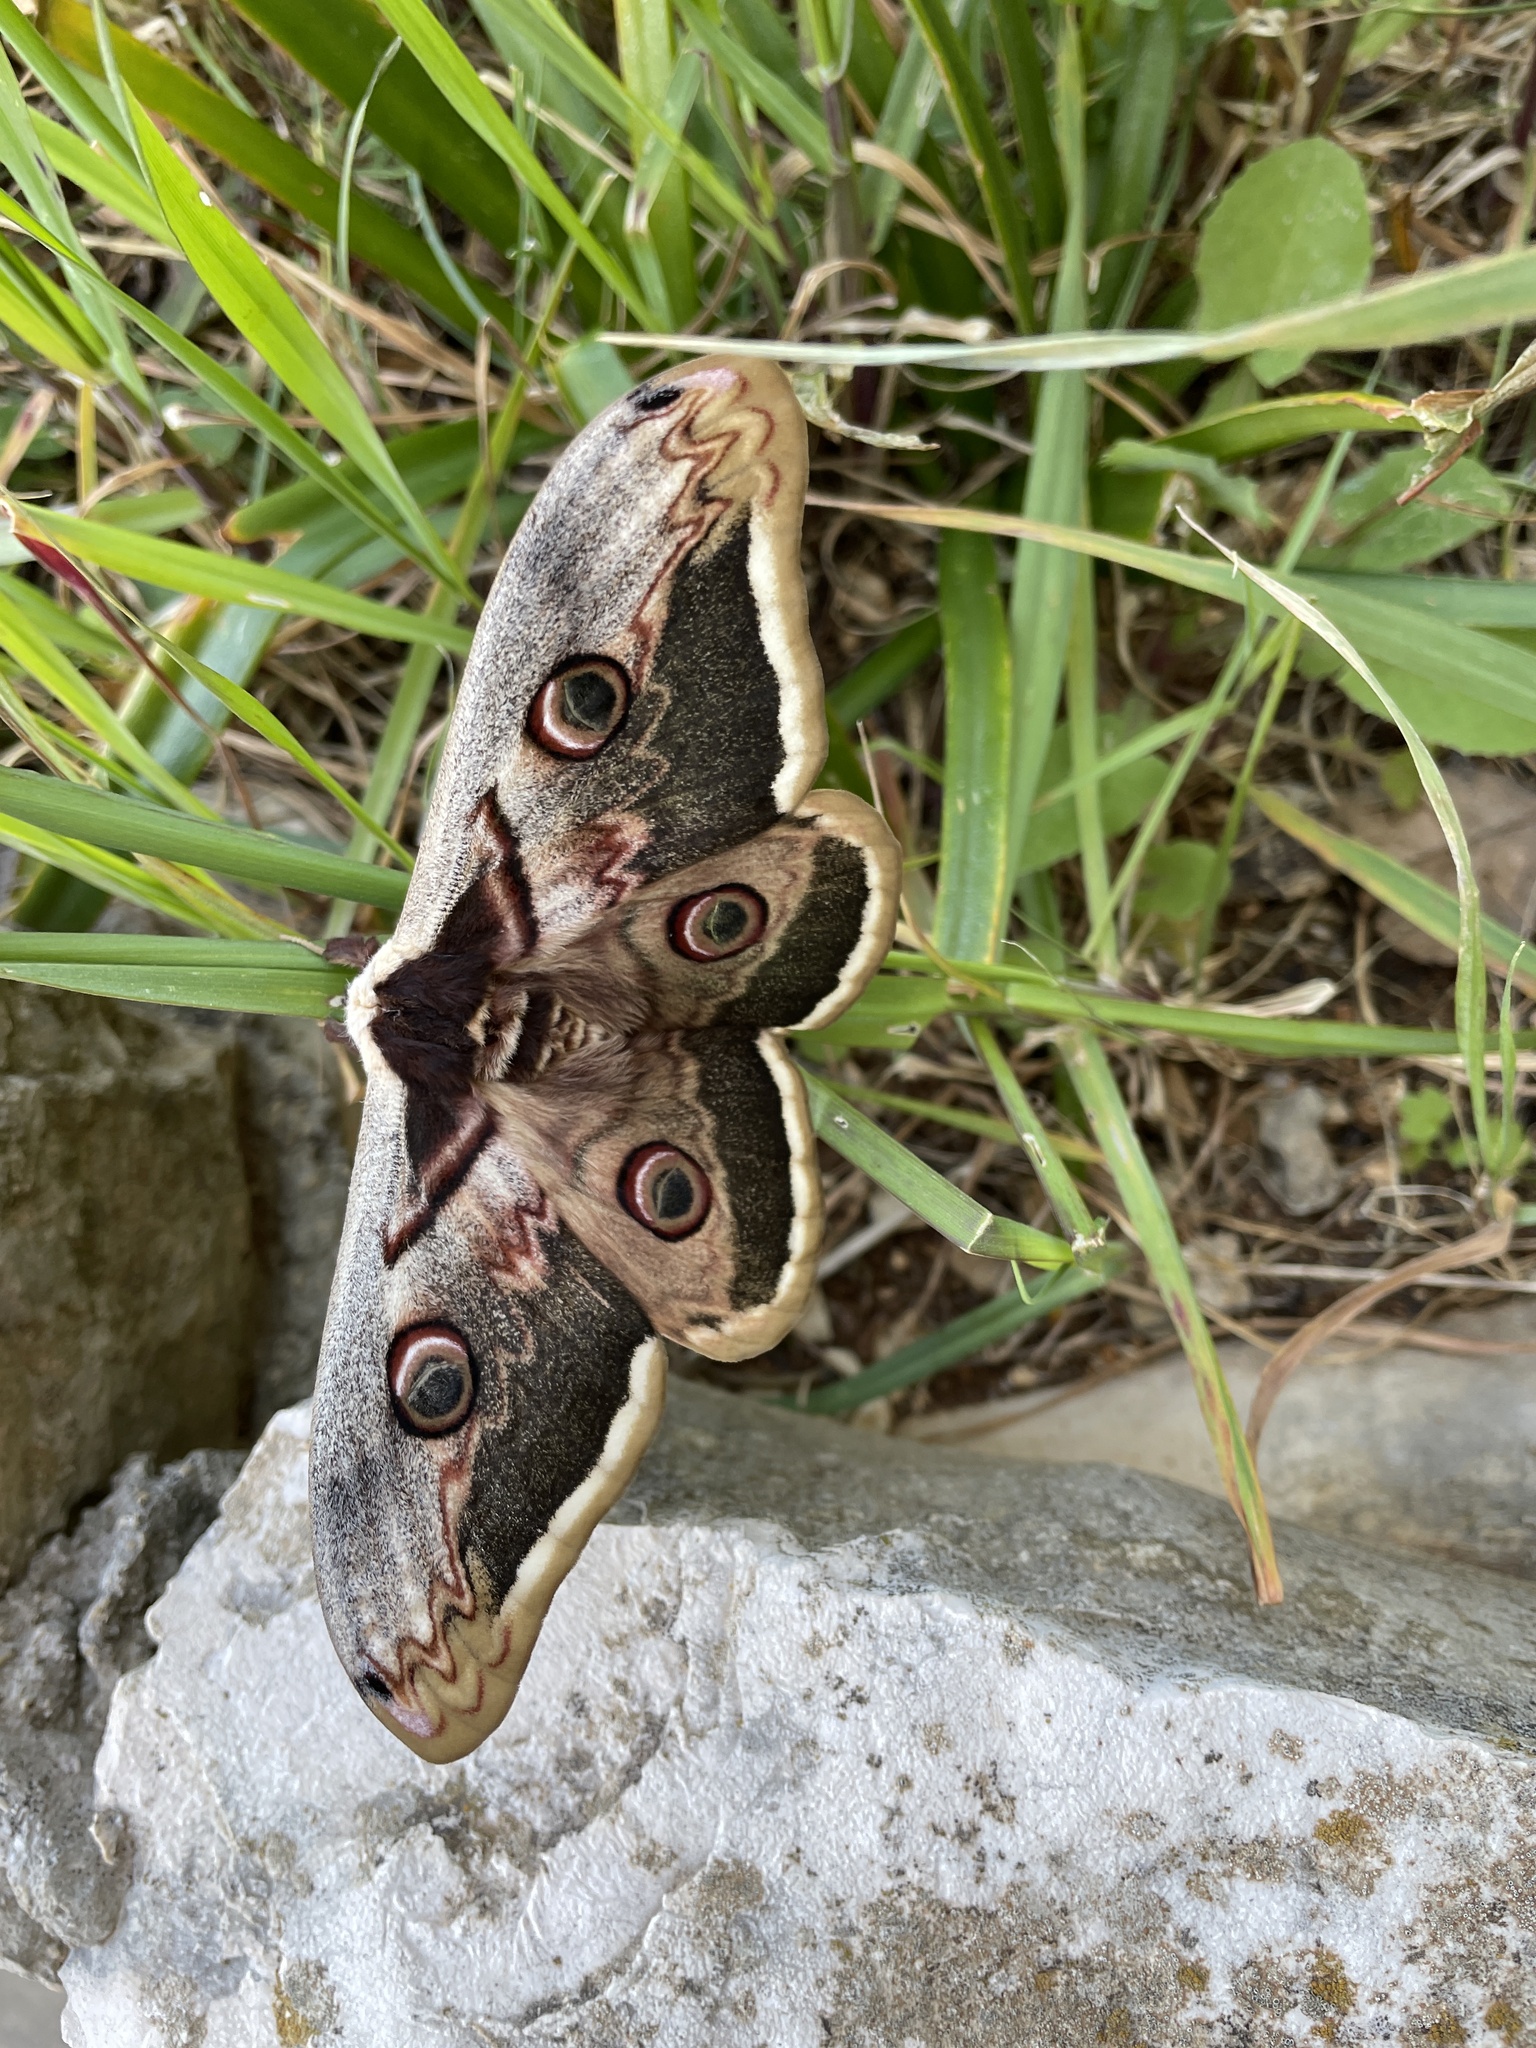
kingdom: Animalia
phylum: Arthropoda
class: Insecta
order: Lepidoptera
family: Saturniidae
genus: Saturnia
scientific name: Saturnia pyri
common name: Great peacock moth
